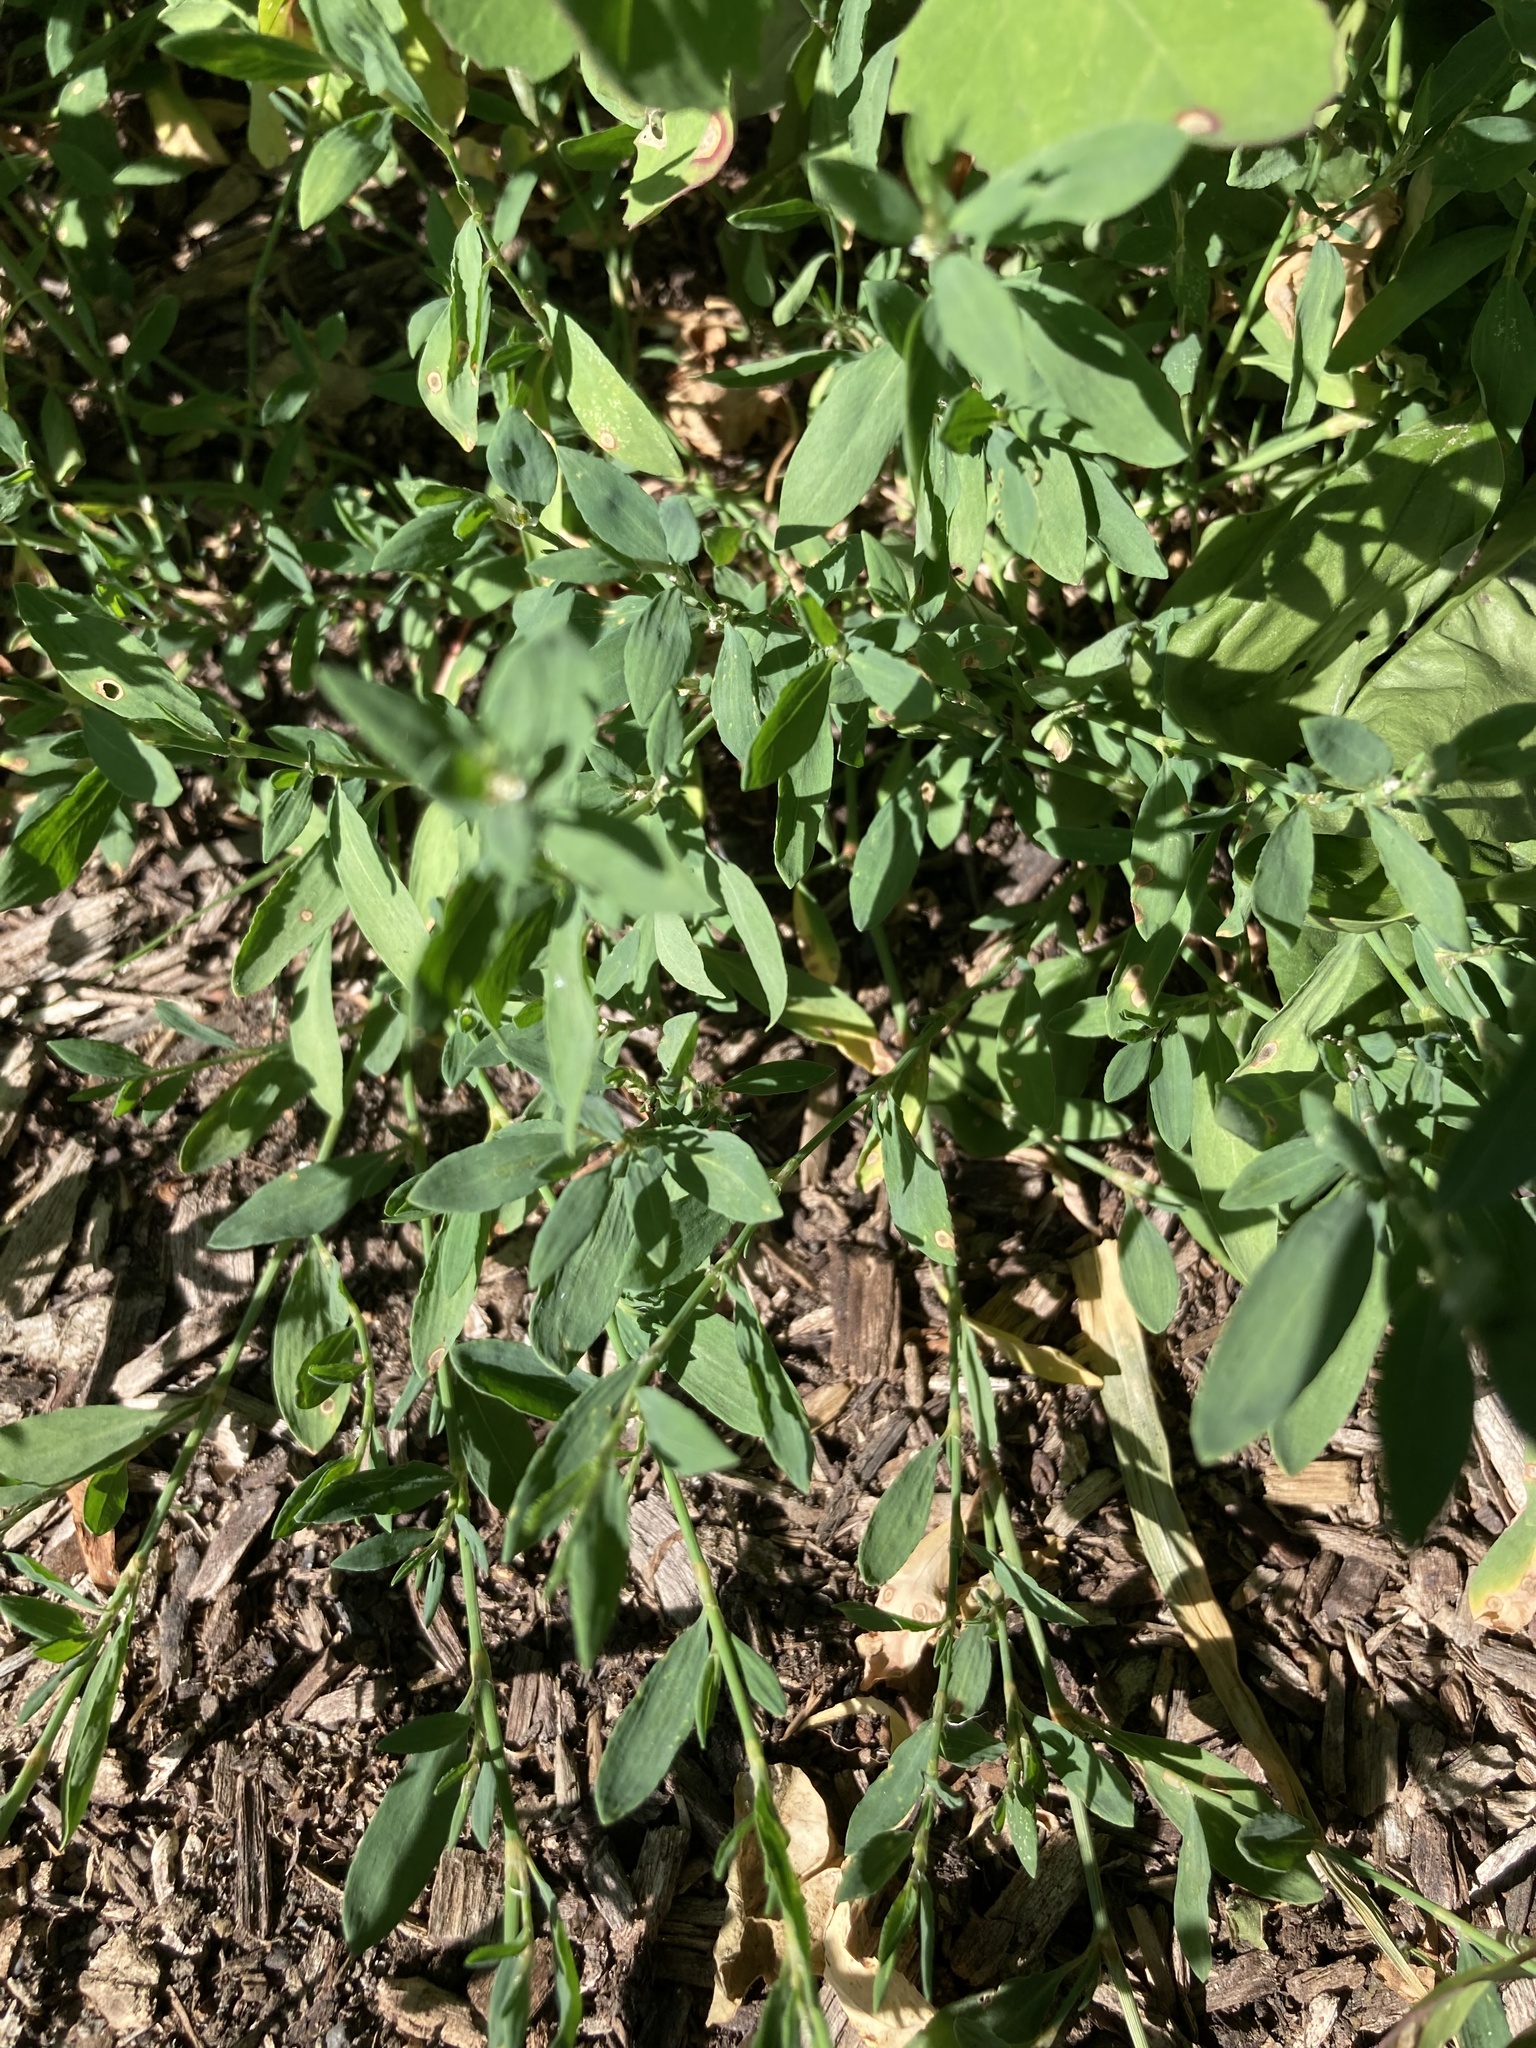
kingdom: Plantae
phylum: Tracheophyta
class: Magnoliopsida
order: Caryophyllales
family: Polygonaceae
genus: Polygonum
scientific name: Polygonum aviculare
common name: Prostrate knotweed
